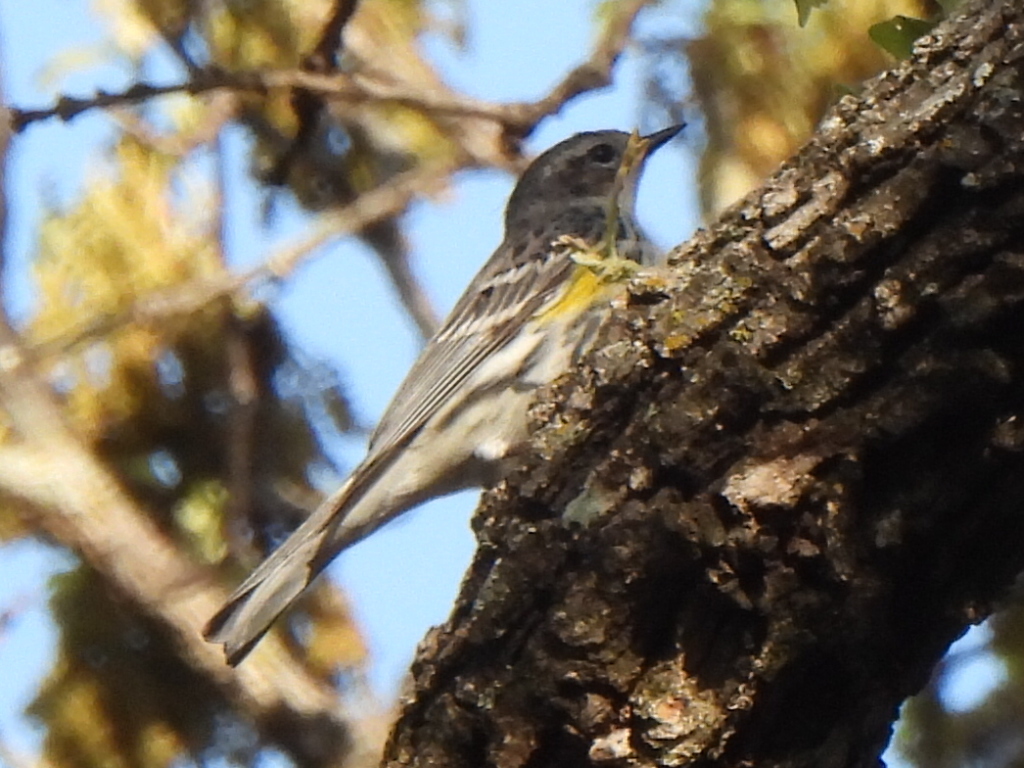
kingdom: Animalia
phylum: Chordata
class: Aves
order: Passeriformes
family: Parulidae
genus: Setophaga
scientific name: Setophaga coronata
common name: Myrtle warbler
